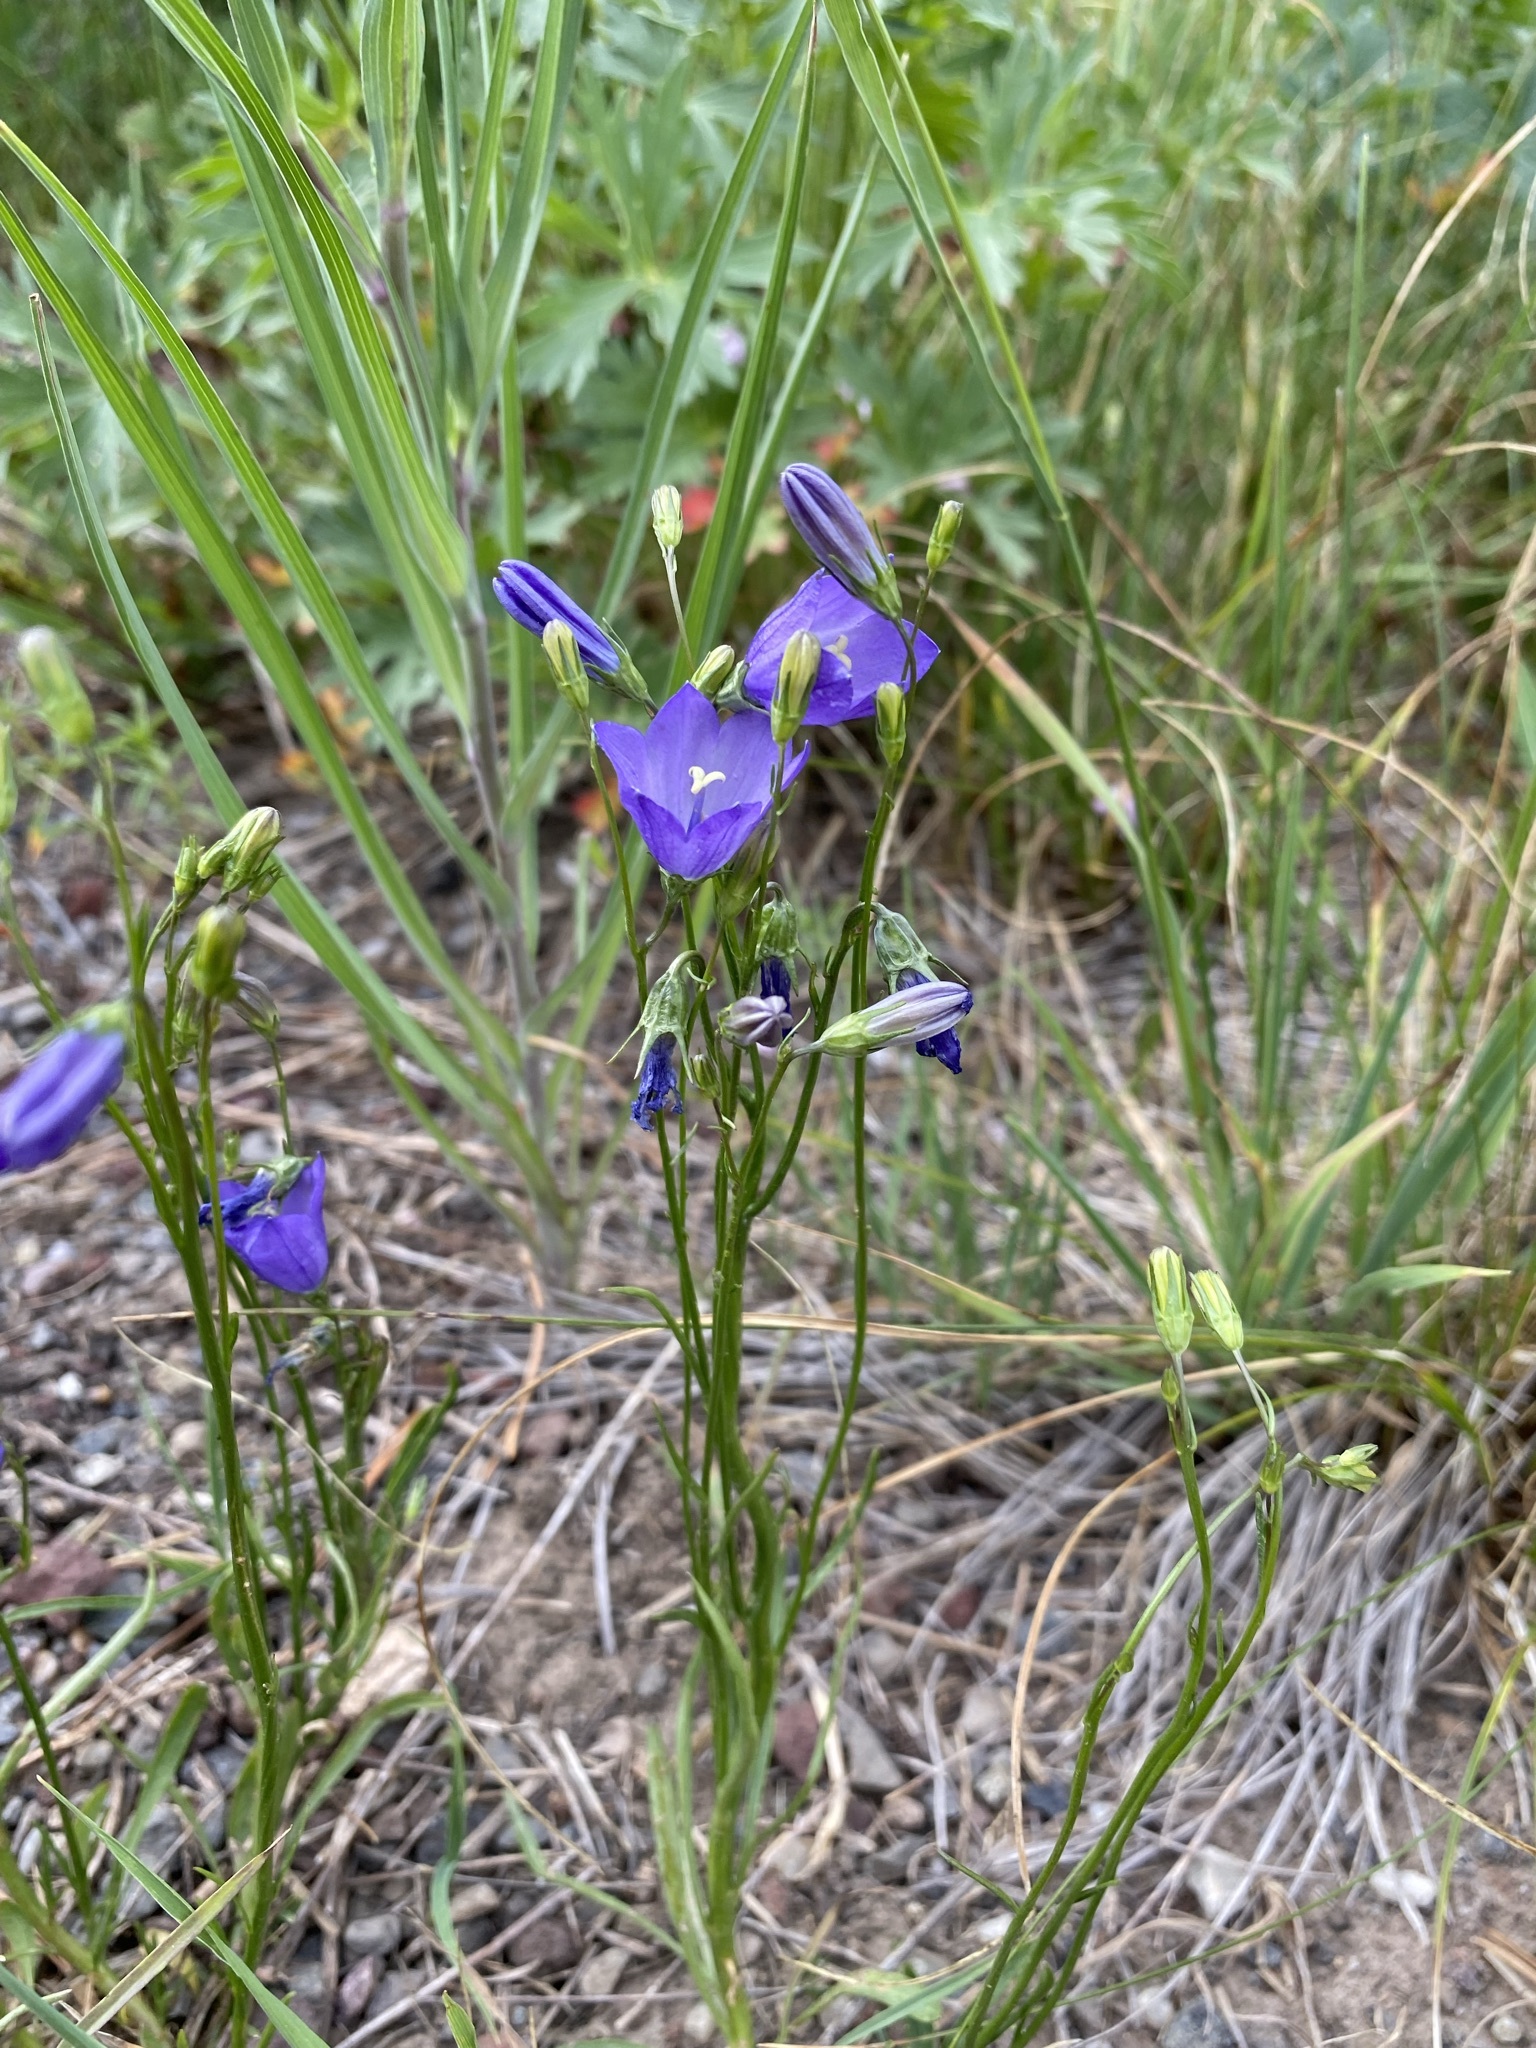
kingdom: Plantae
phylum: Tracheophyta
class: Magnoliopsida
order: Asterales
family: Campanulaceae
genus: Campanula
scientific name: Campanula petiolata
